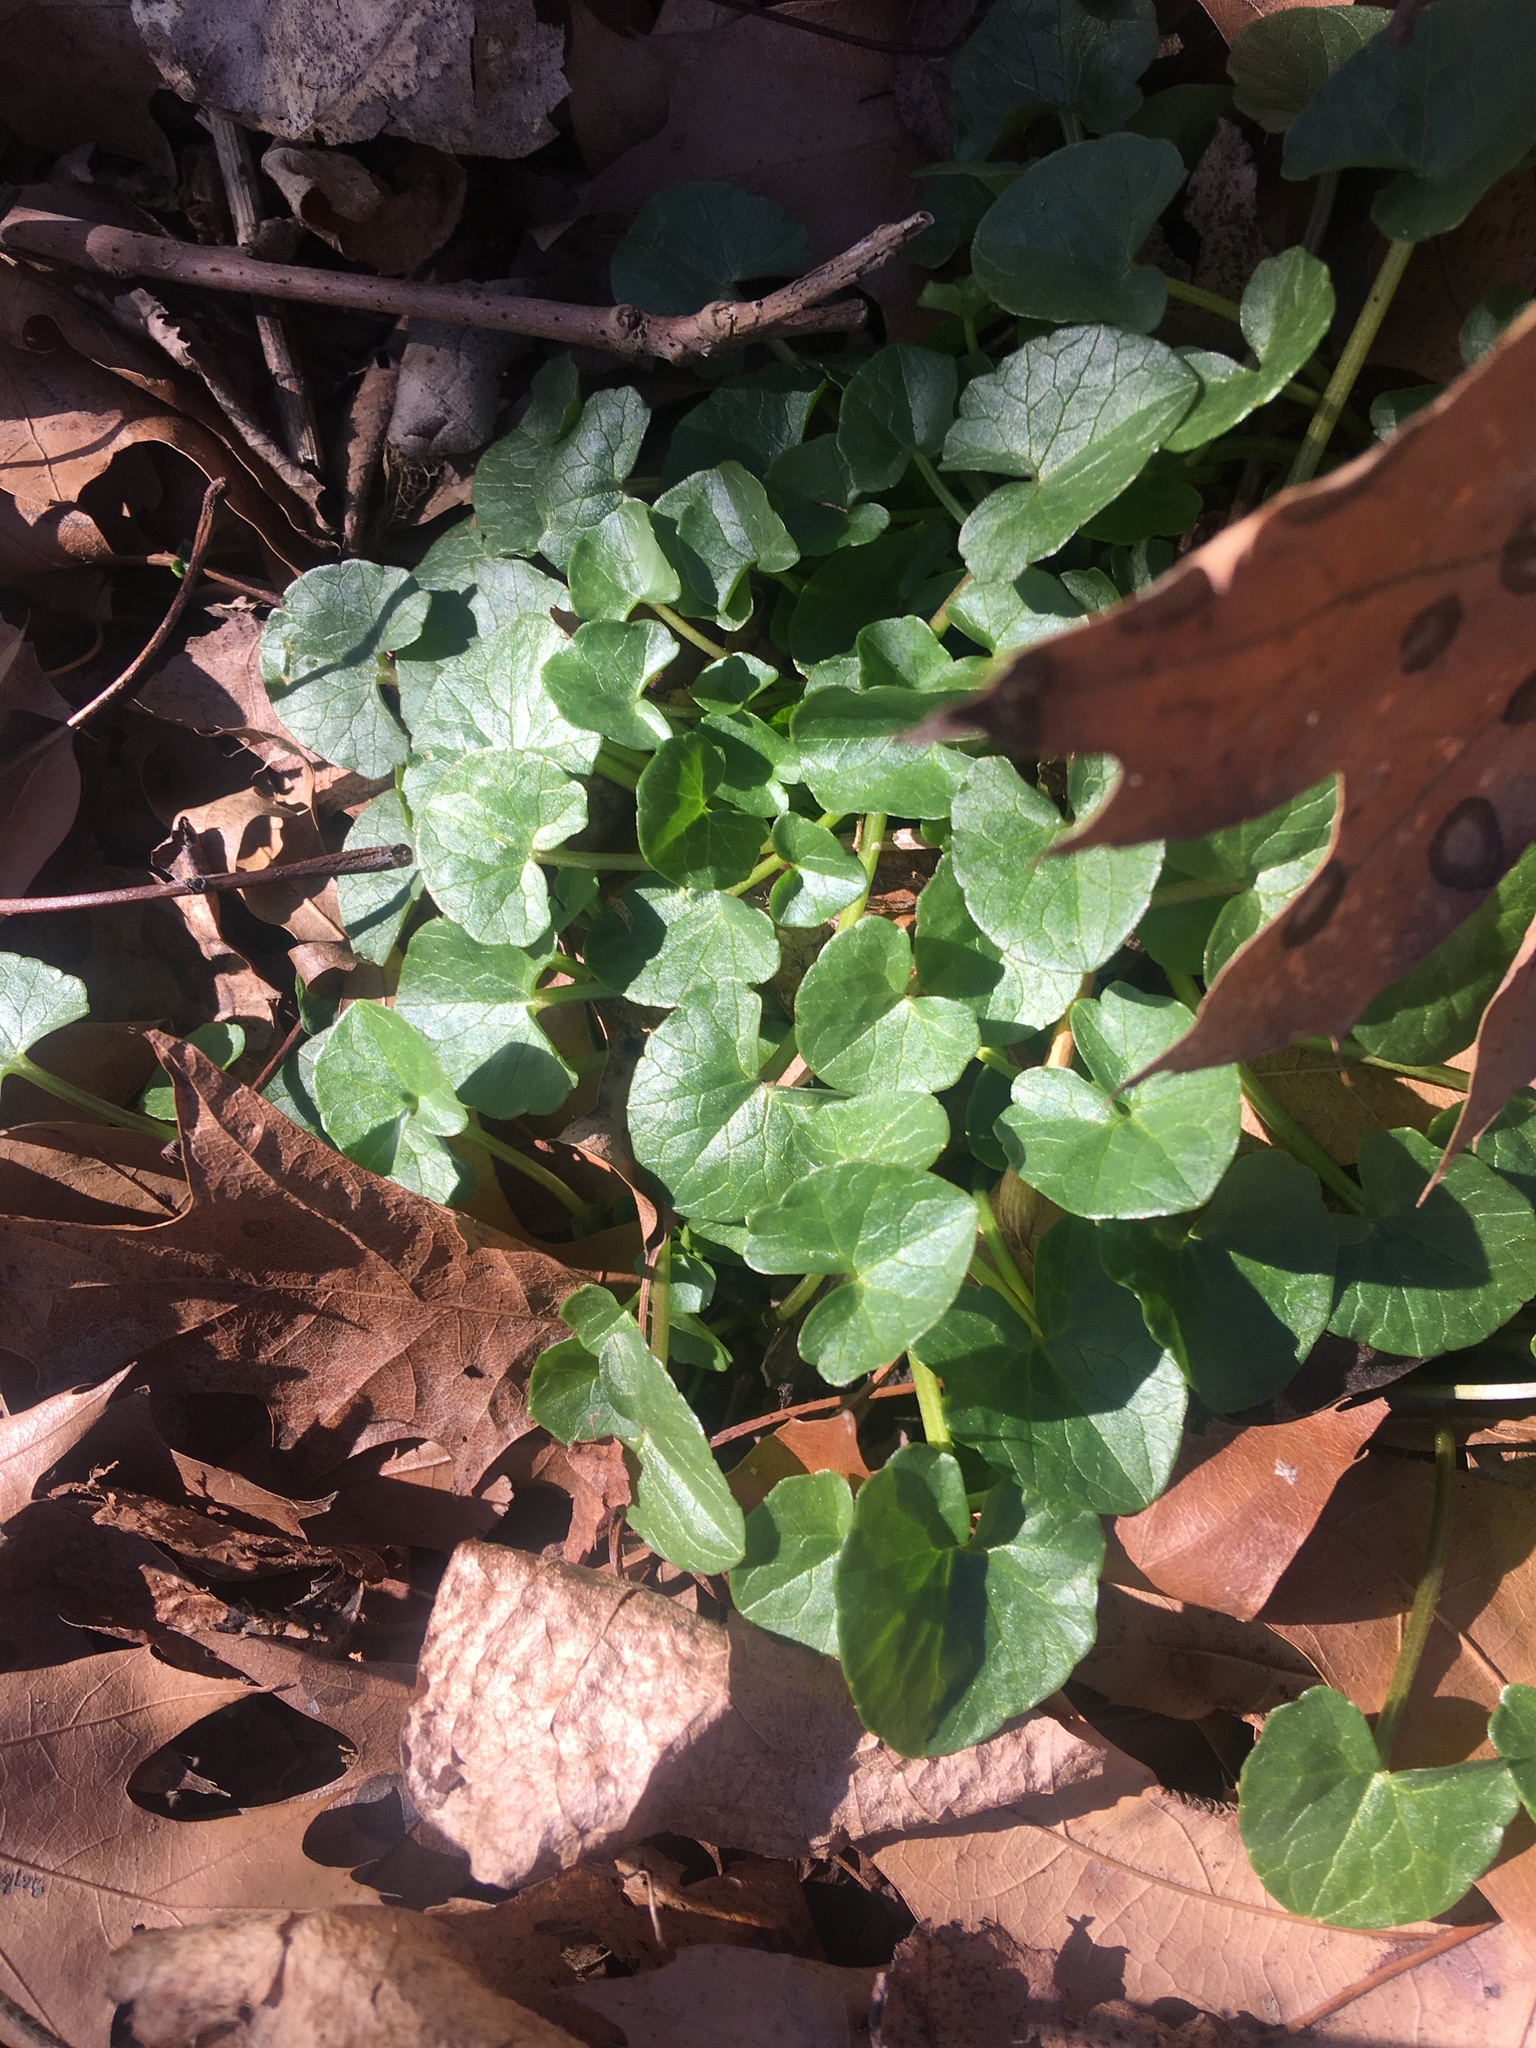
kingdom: Plantae
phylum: Tracheophyta
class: Magnoliopsida
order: Ranunculales
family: Ranunculaceae
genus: Ficaria
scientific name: Ficaria verna
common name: Lesser celandine
